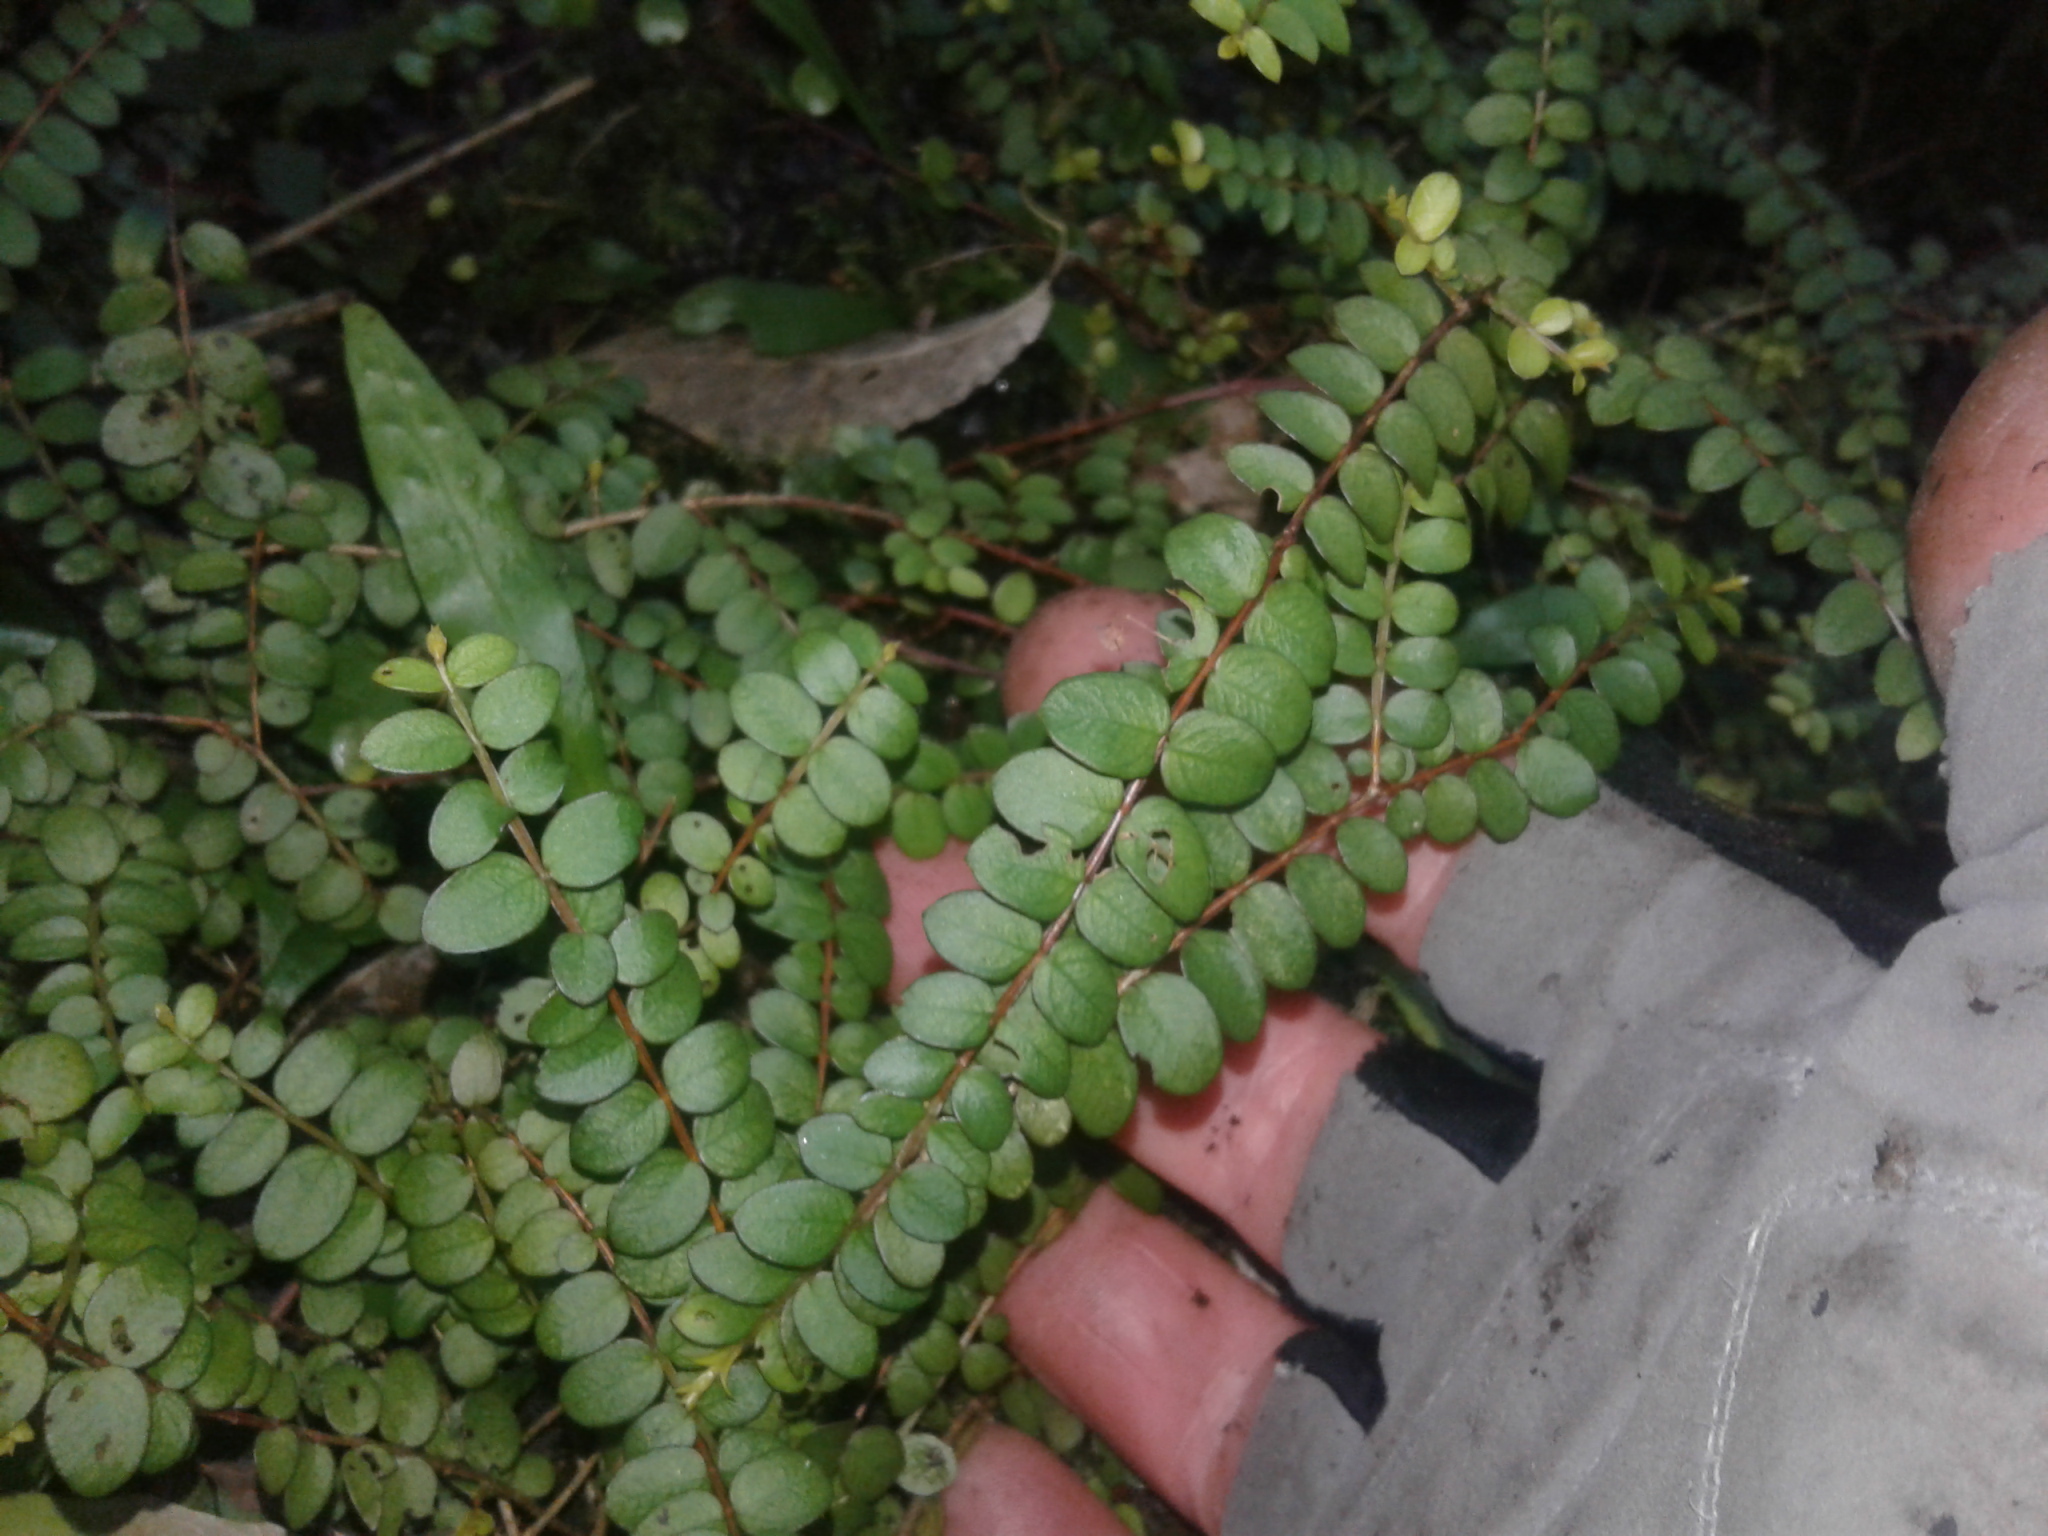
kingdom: Plantae
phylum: Tracheophyta
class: Magnoliopsida
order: Myrtales
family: Myrtaceae
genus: Metrosideros
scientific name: Metrosideros diffusa
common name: Small ratavine
